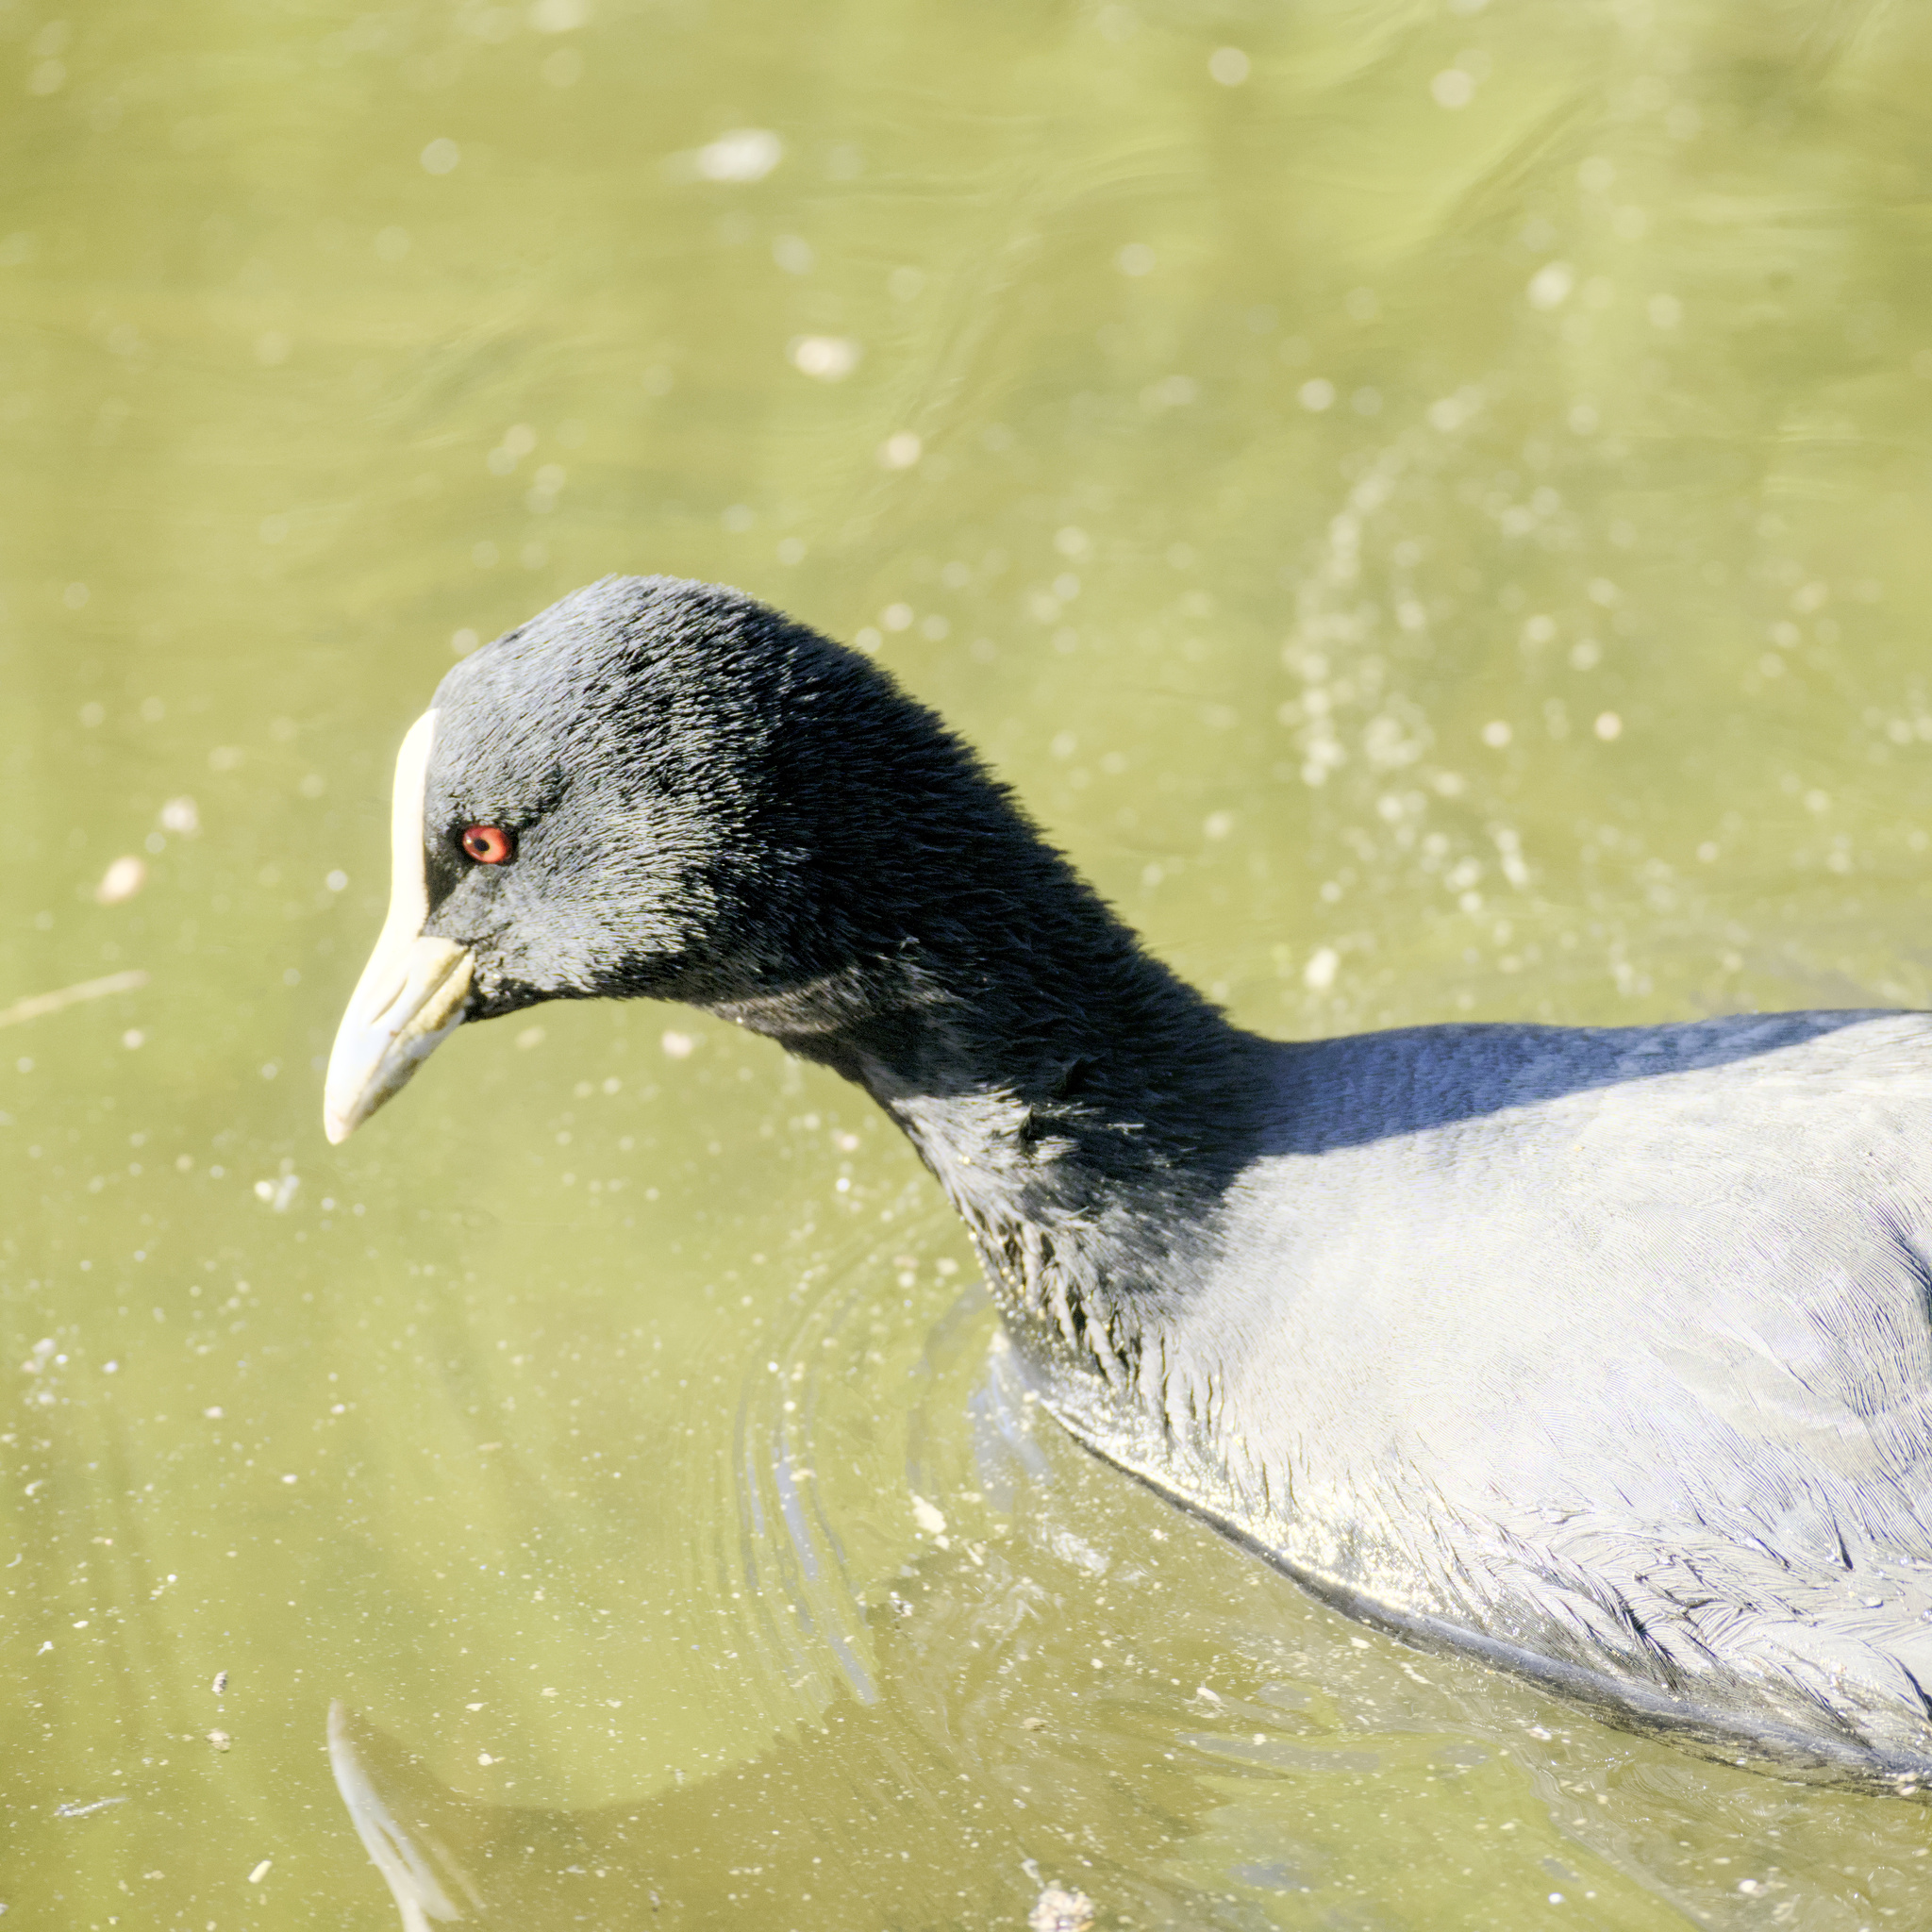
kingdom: Animalia
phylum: Chordata
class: Aves
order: Gruiformes
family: Rallidae
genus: Fulica
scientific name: Fulica atra
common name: Eurasian coot
